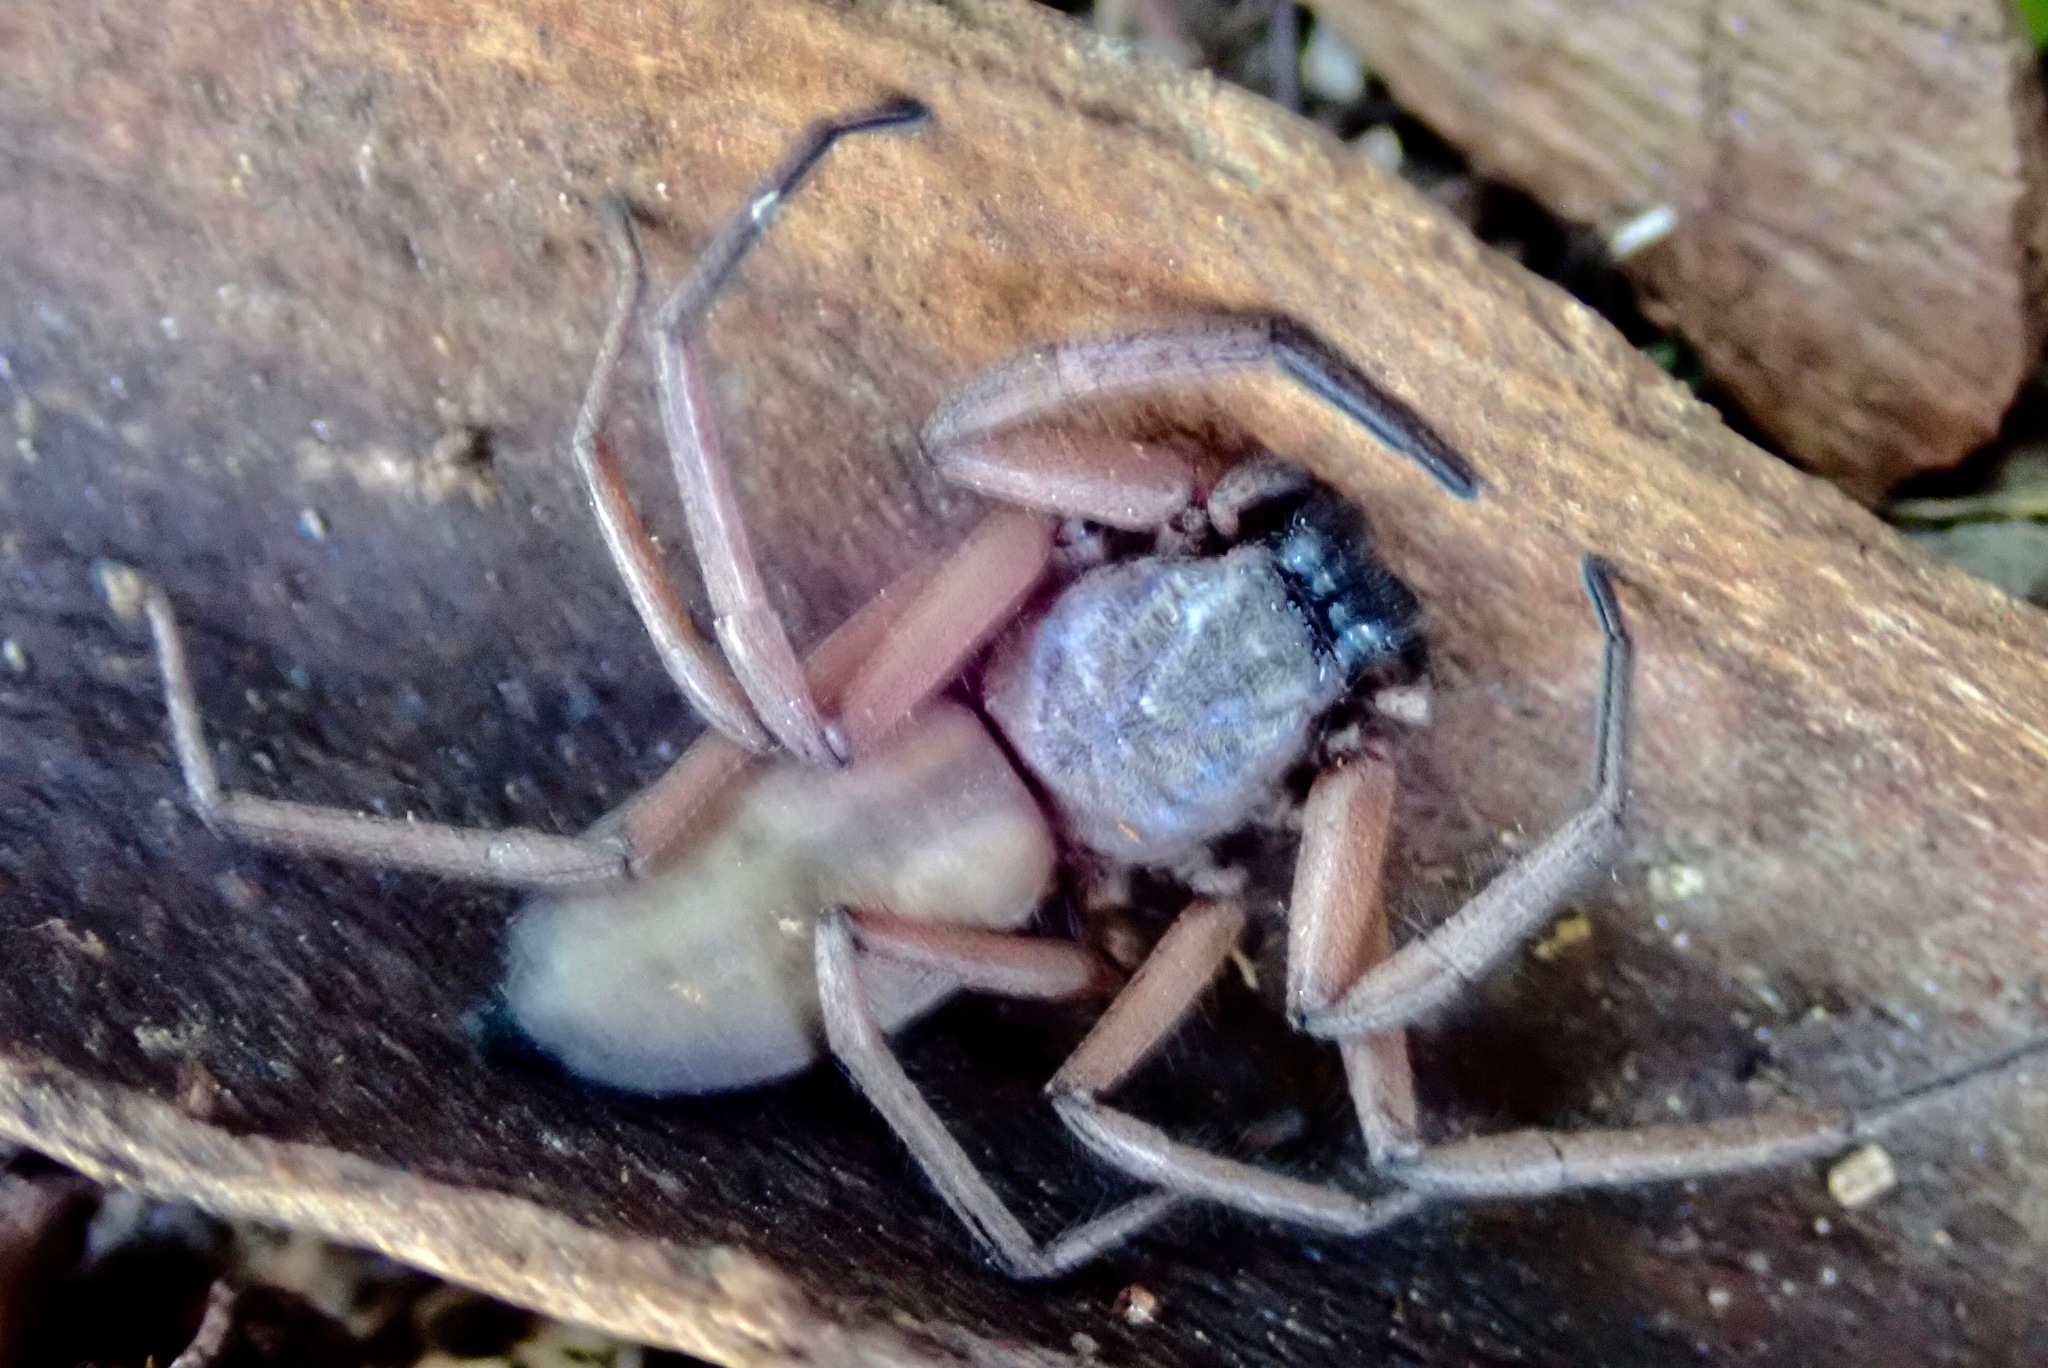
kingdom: Animalia
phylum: Arthropoda
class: Arachnida
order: Araneae
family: Trochanteriidae
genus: Hemicloea
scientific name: Hemicloea rogenhoferi
